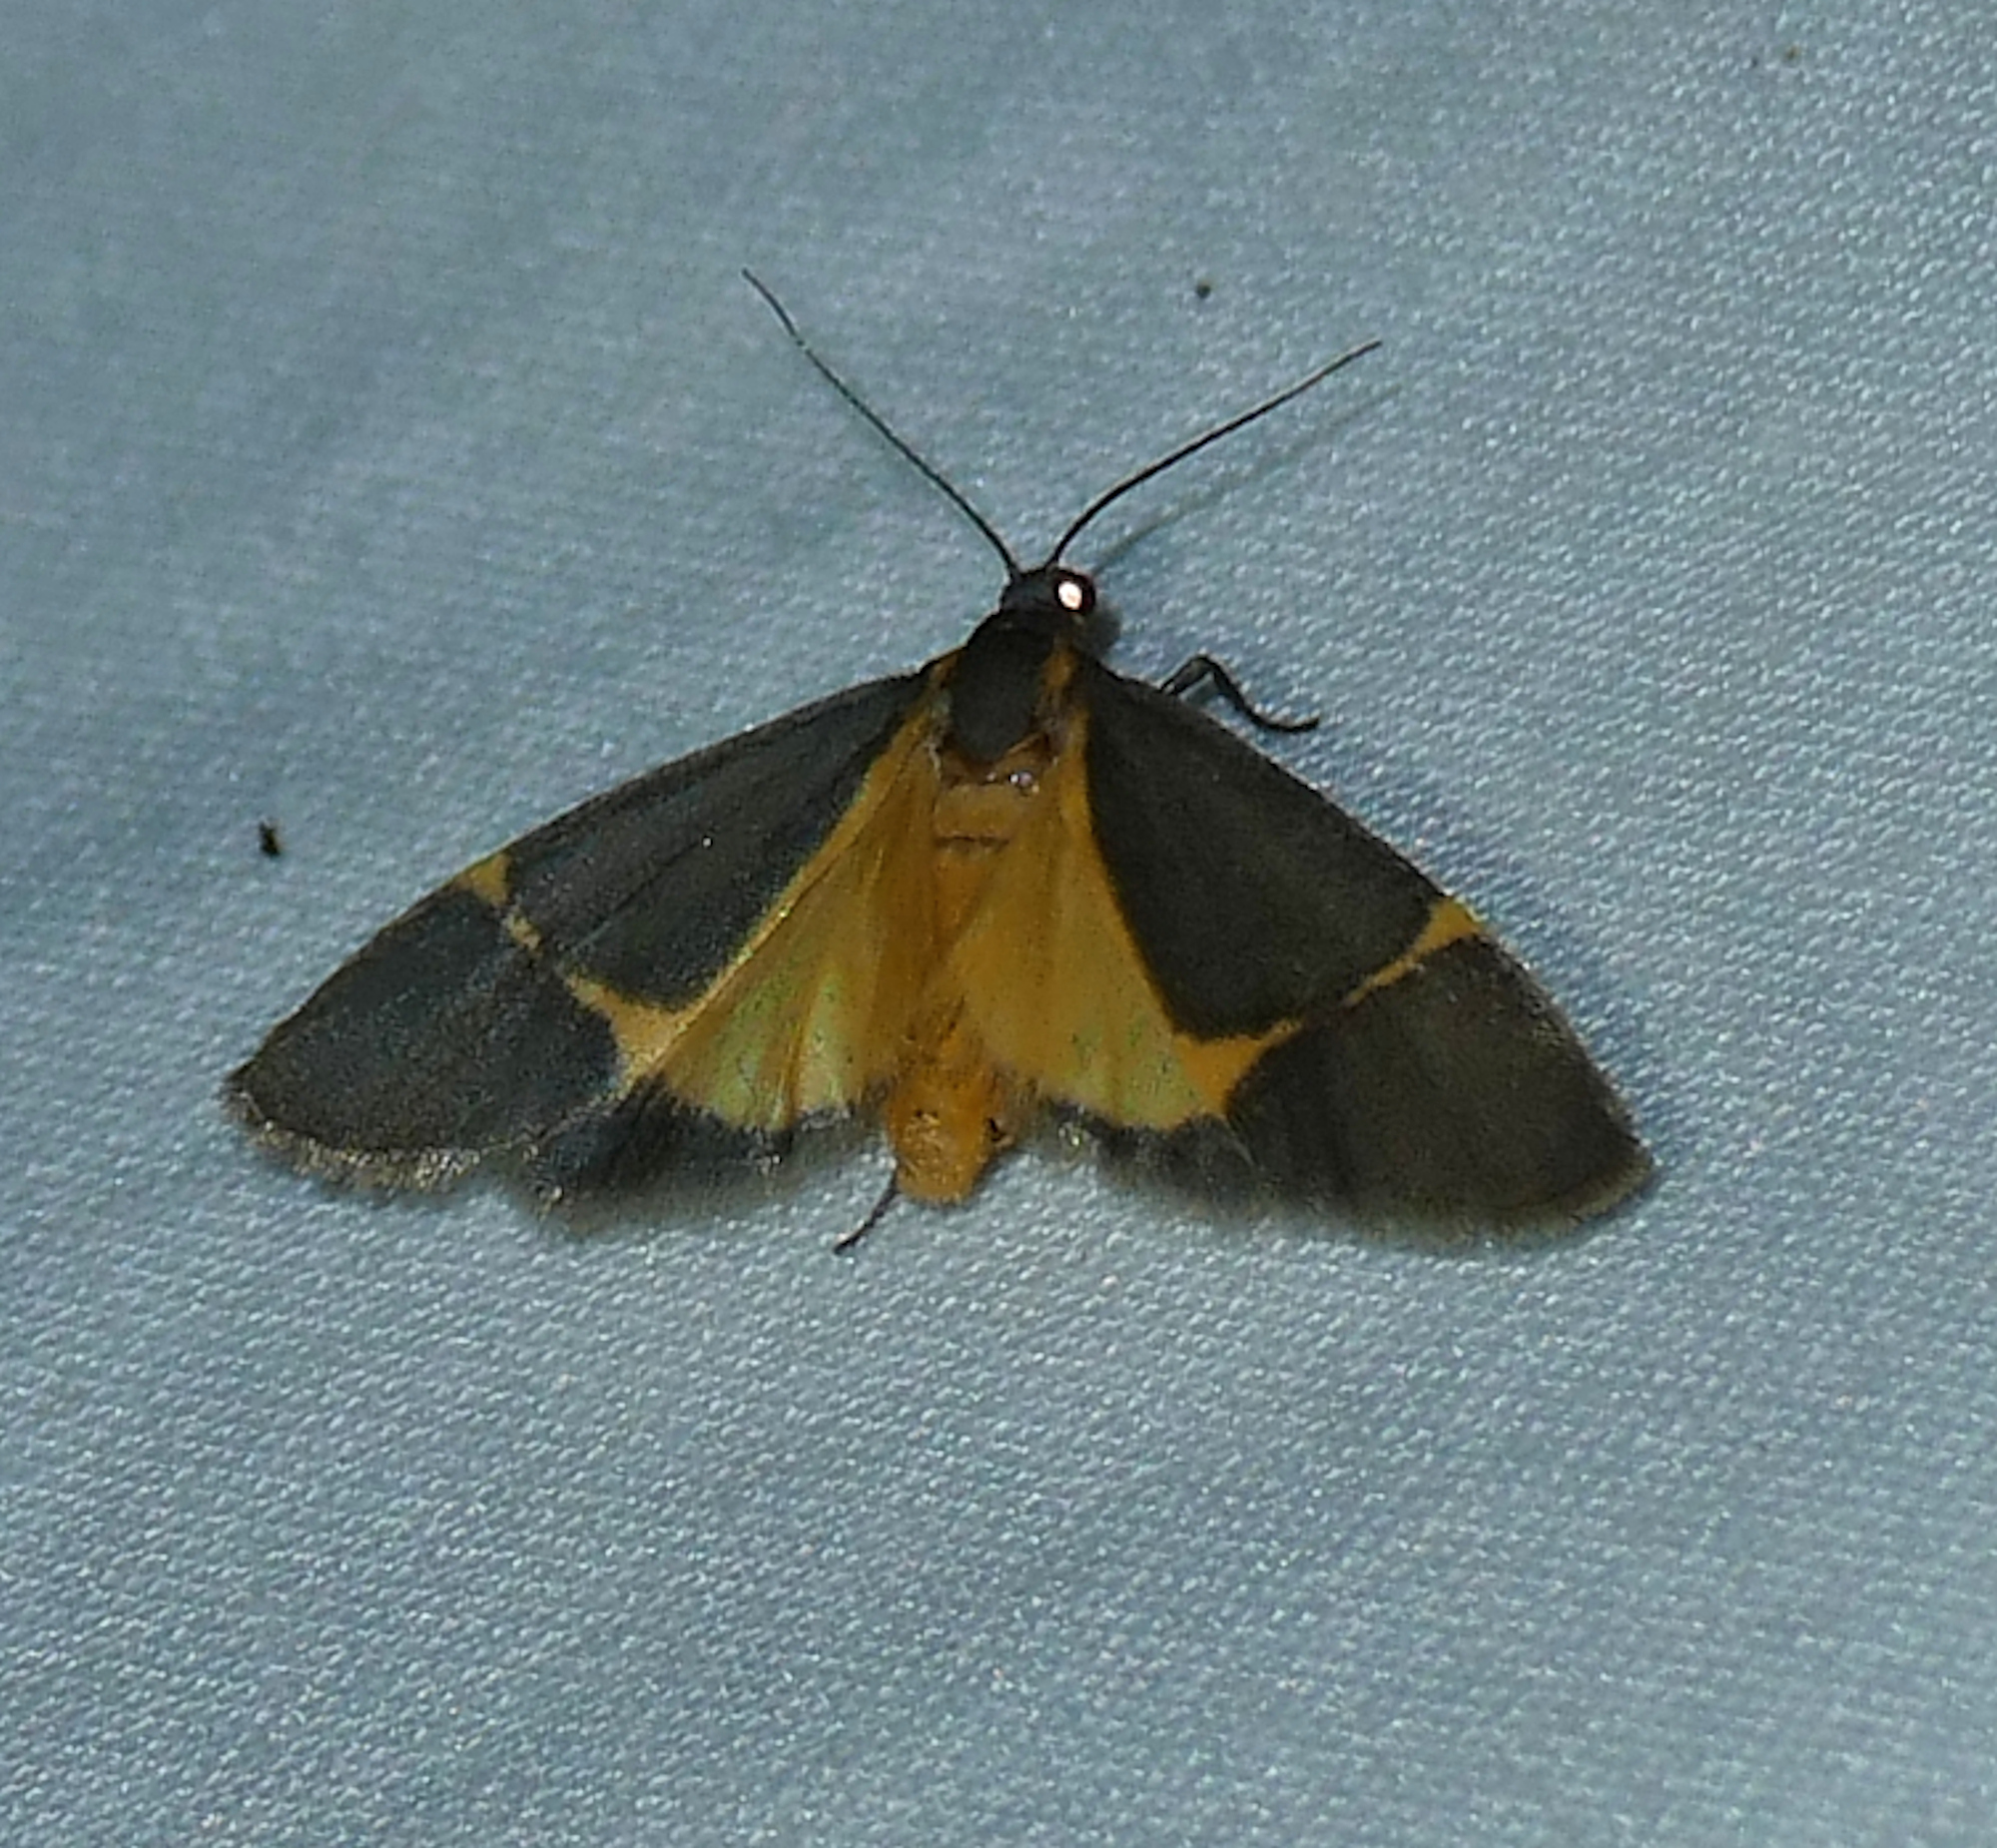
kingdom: Animalia
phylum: Arthropoda
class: Insecta
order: Lepidoptera
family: Erebidae
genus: Cisthene
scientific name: Cisthene barnesii
